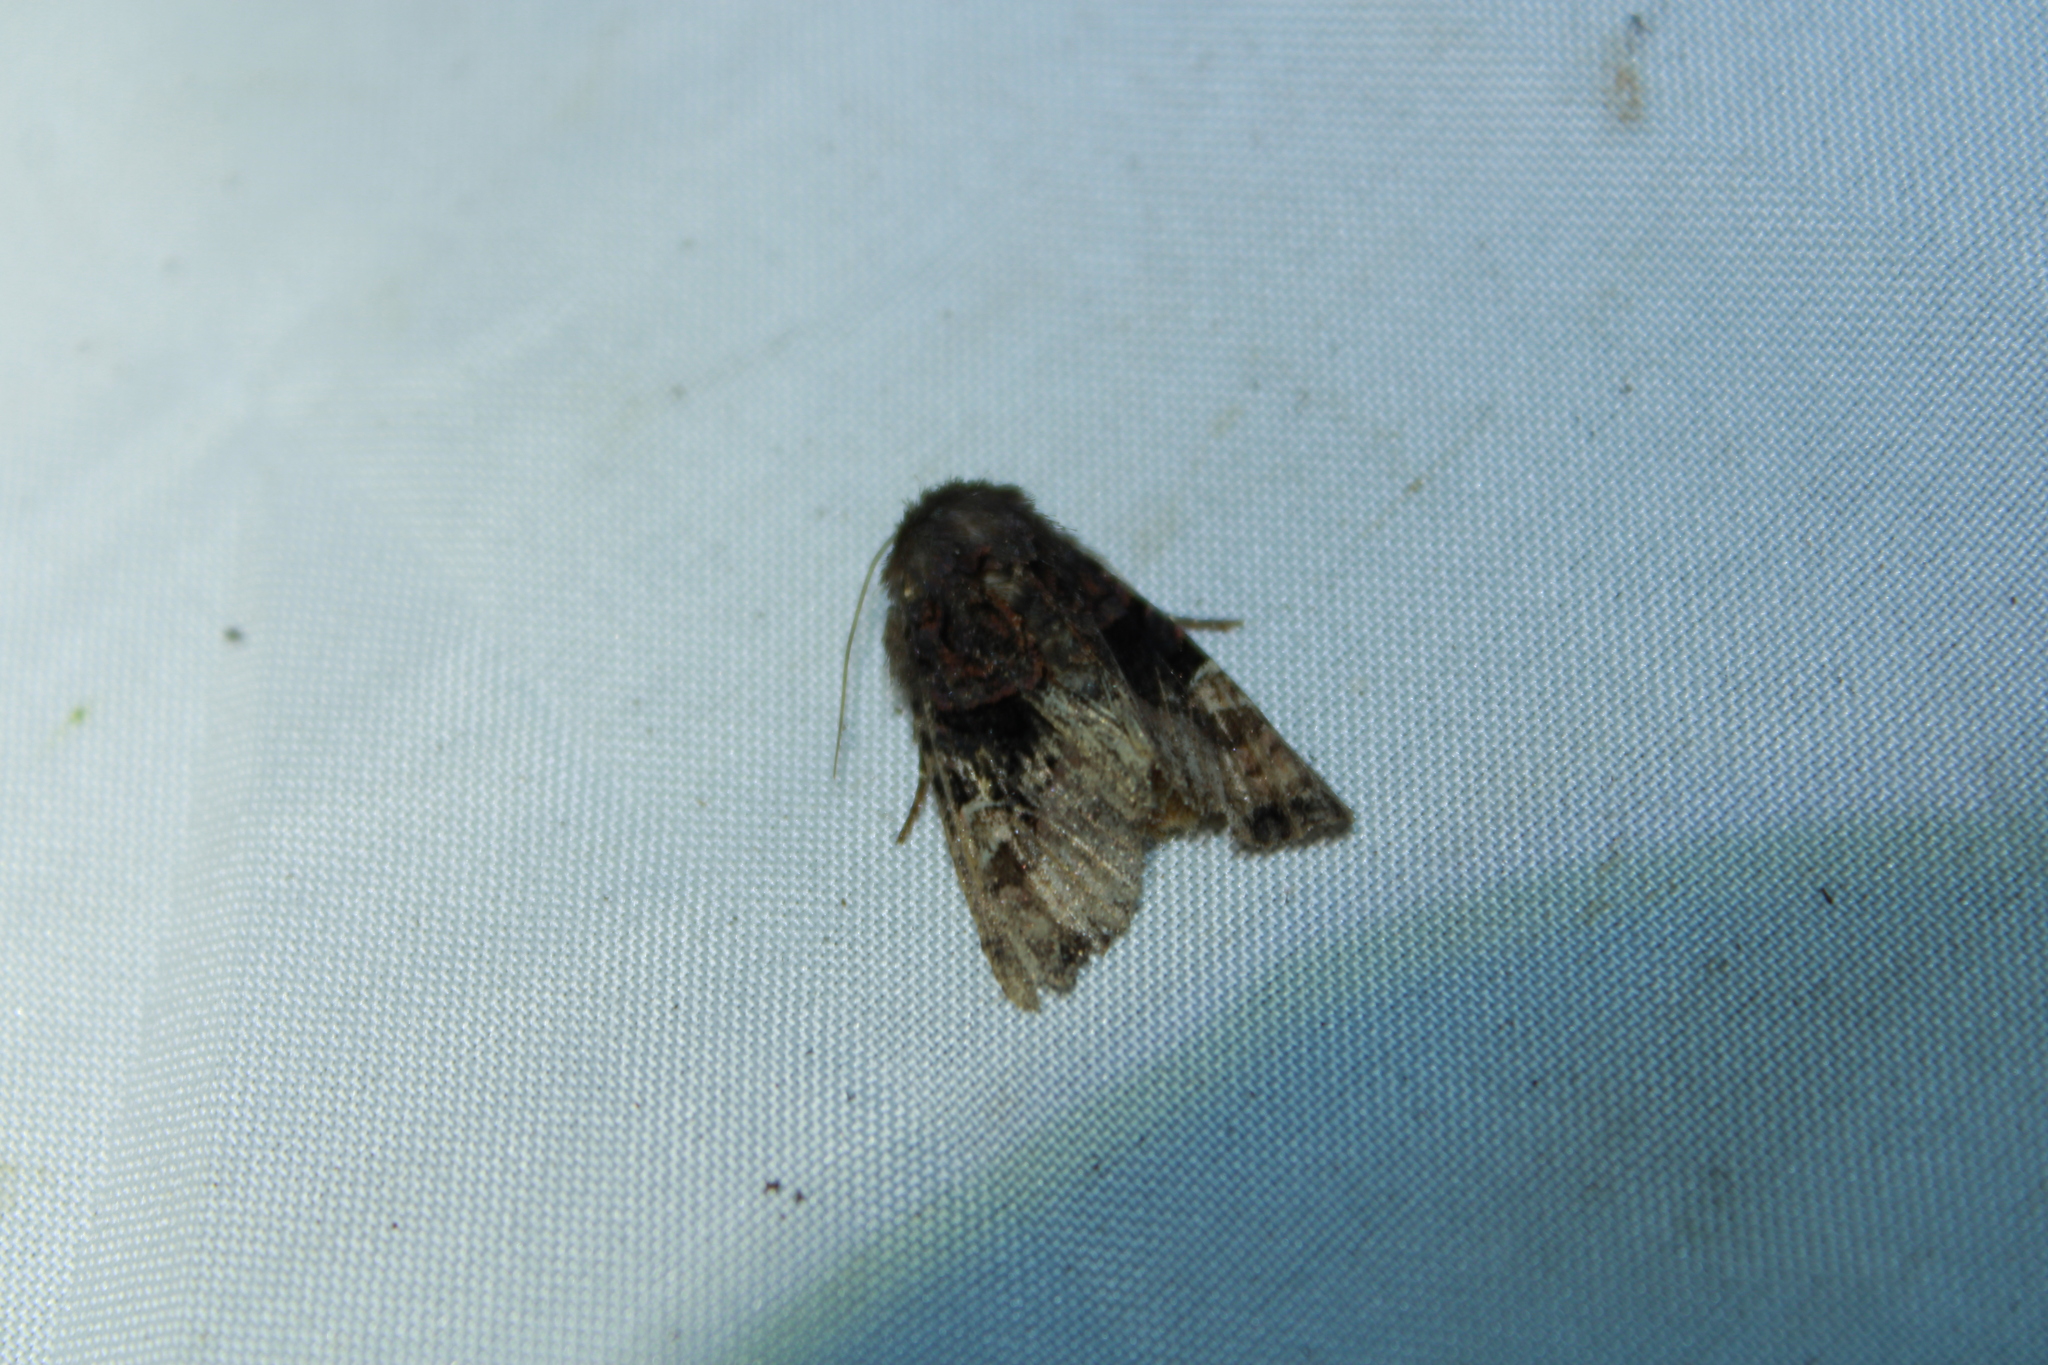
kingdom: Animalia
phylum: Arthropoda
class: Insecta
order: Lepidoptera
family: Noctuidae
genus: Euplexia
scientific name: Euplexia benesimilis
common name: American angle shades
